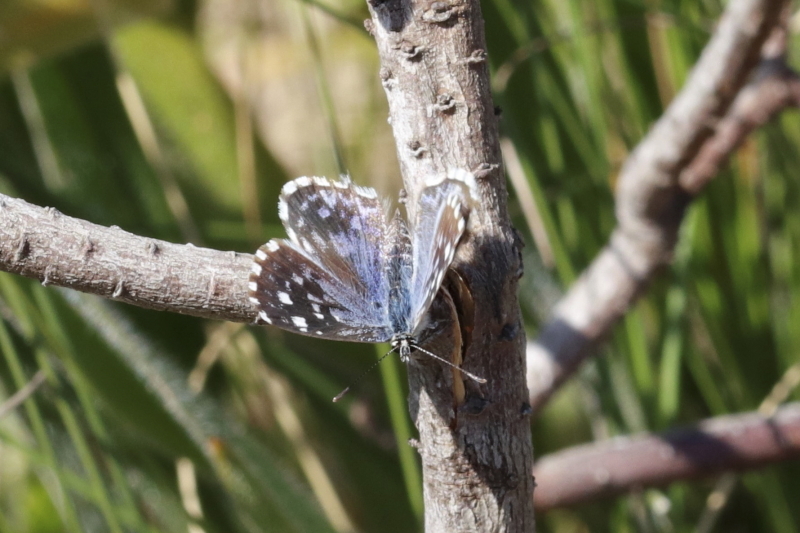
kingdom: Animalia
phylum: Arthropoda
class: Insecta
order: Lepidoptera
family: Lycaenidae
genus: Tarucus
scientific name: Tarucus thespis
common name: Vivid dotted blue
